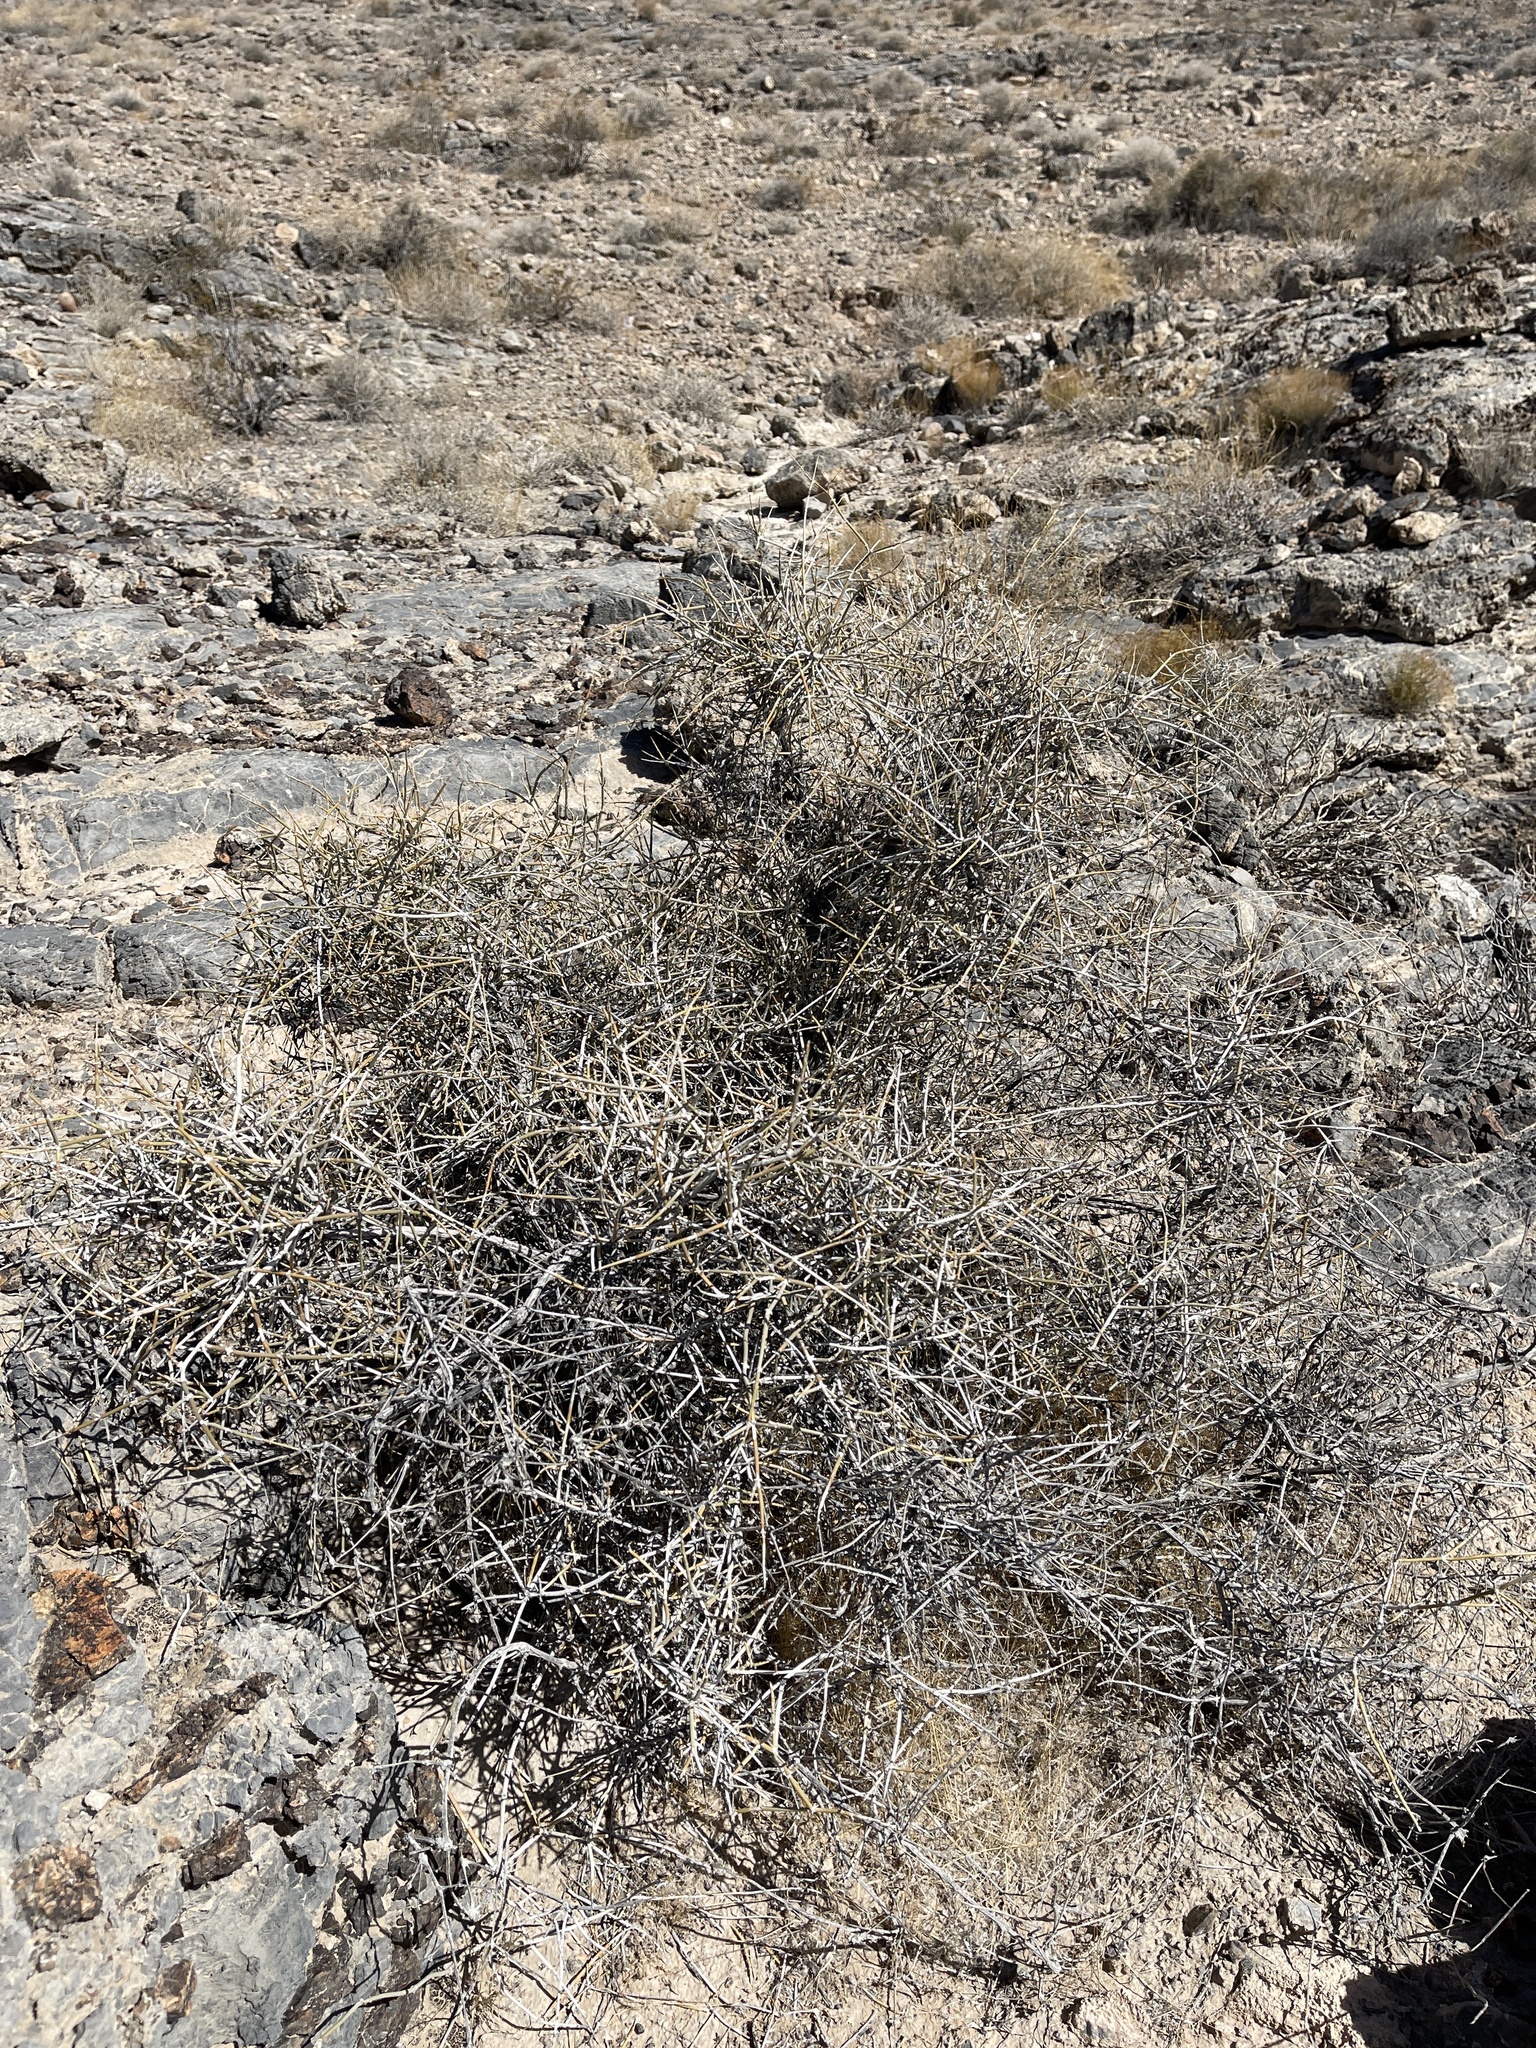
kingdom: Plantae
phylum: Tracheophyta
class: Gnetopsida
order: Ephedrales
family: Ephedraceae
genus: Ephedra
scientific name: Ephedra nevadensis
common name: Gray ephedra
